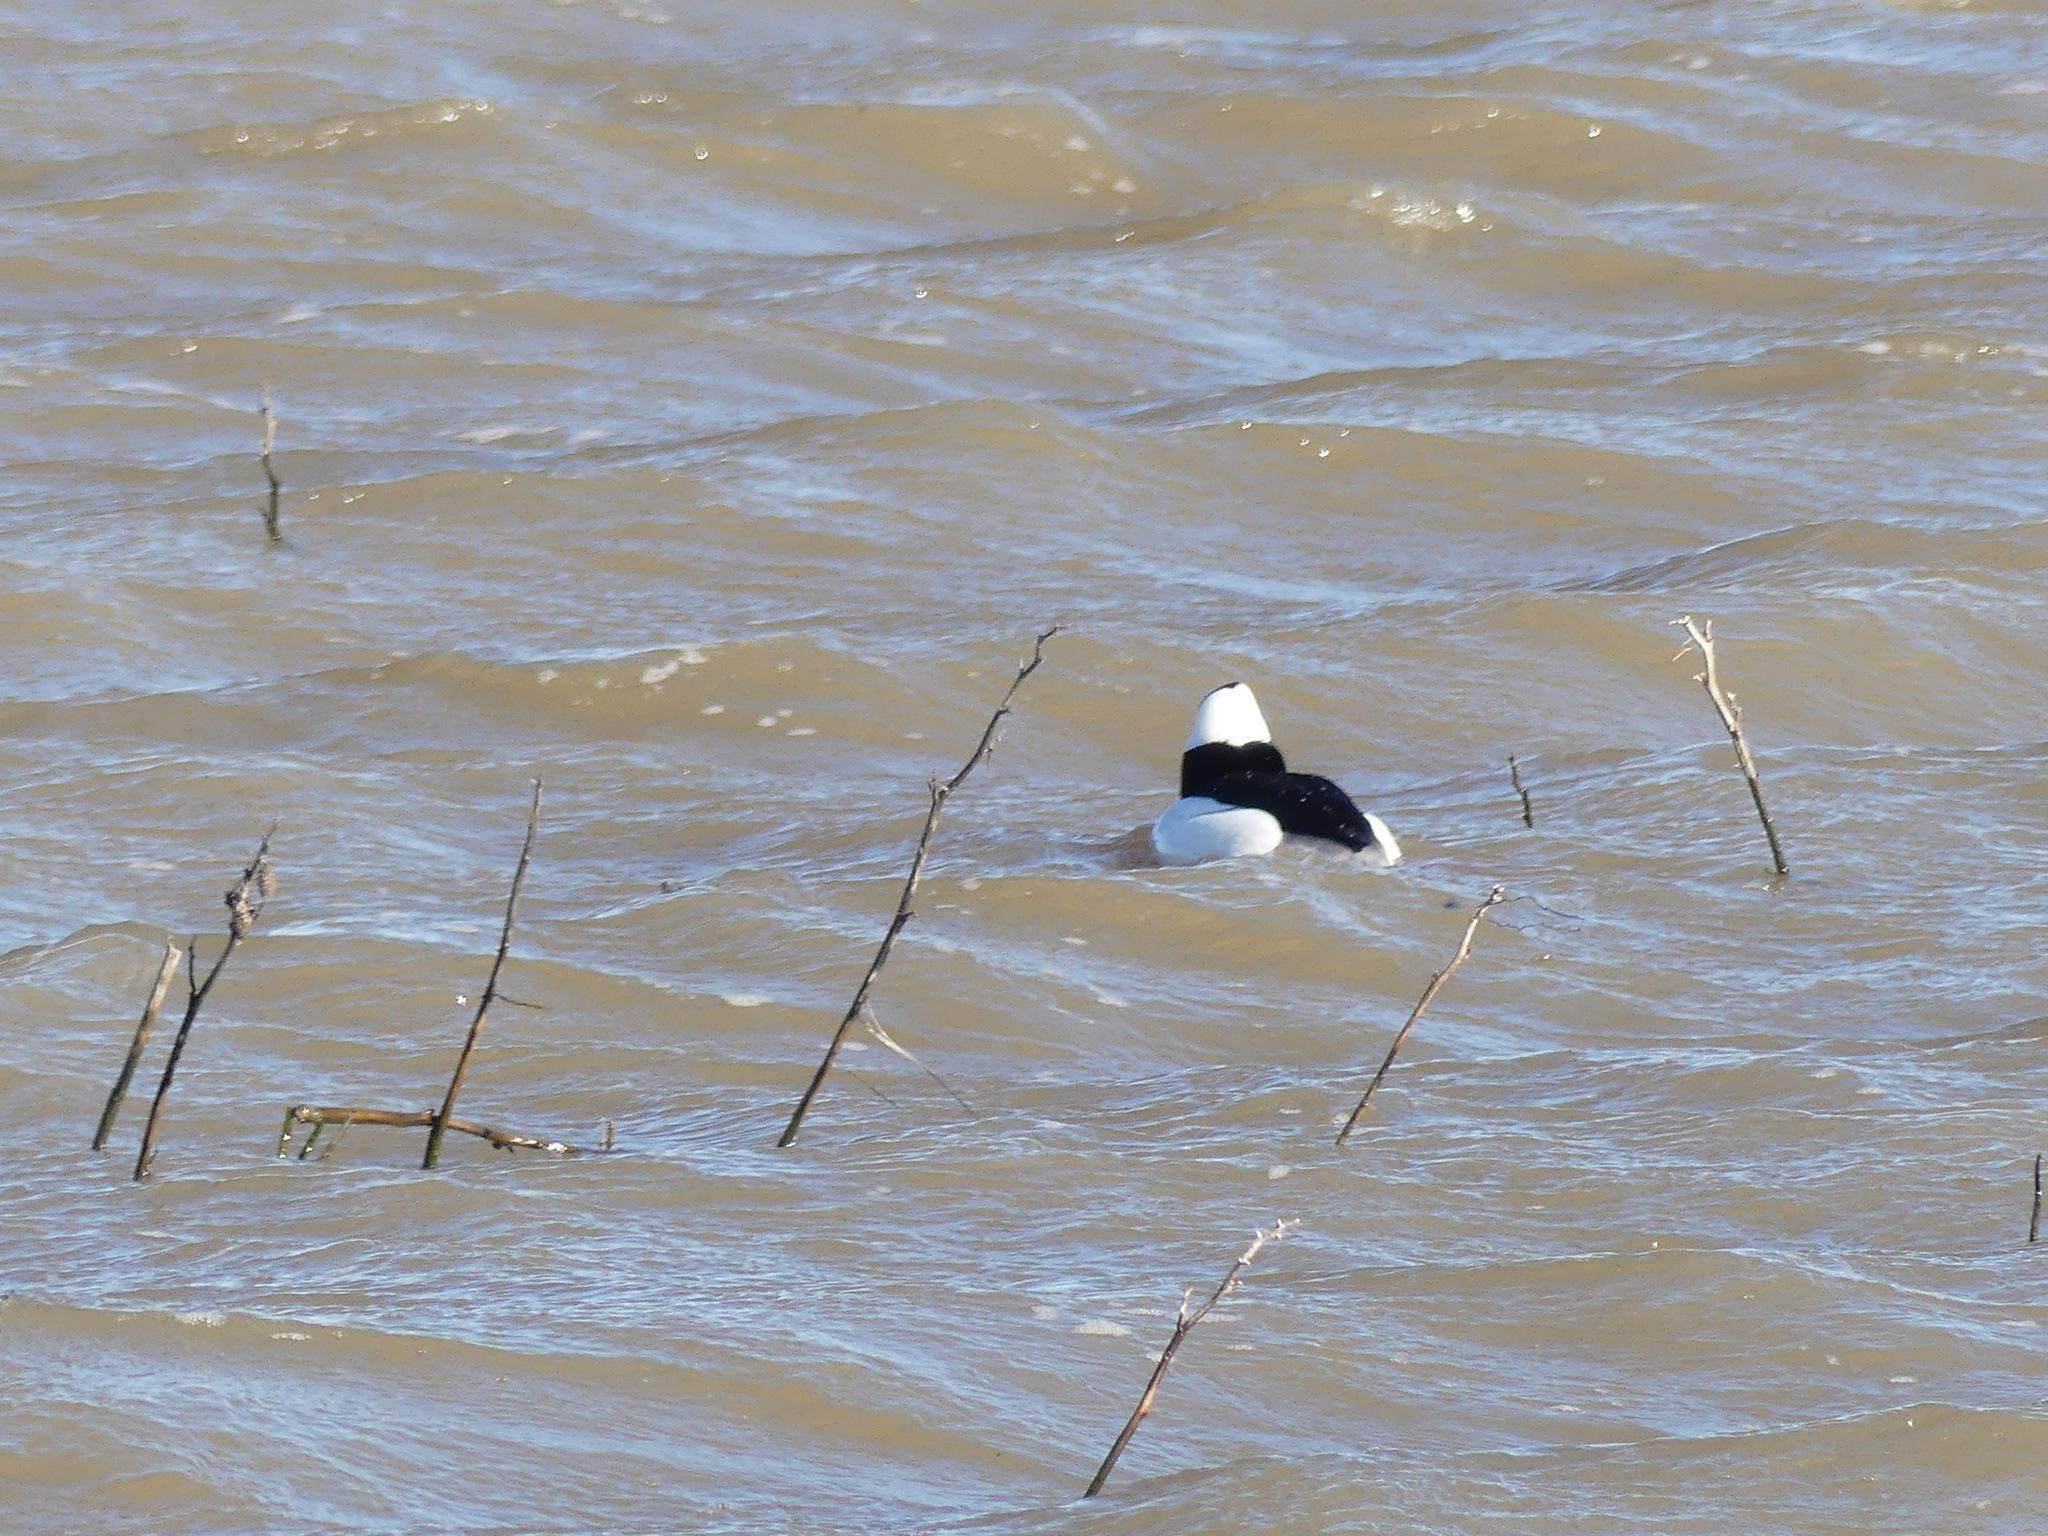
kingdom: Animalia
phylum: Chordata
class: Aves
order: Anseriformes
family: Anatidae
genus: Bucephala
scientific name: Bucephala albeola
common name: Bufflehead
